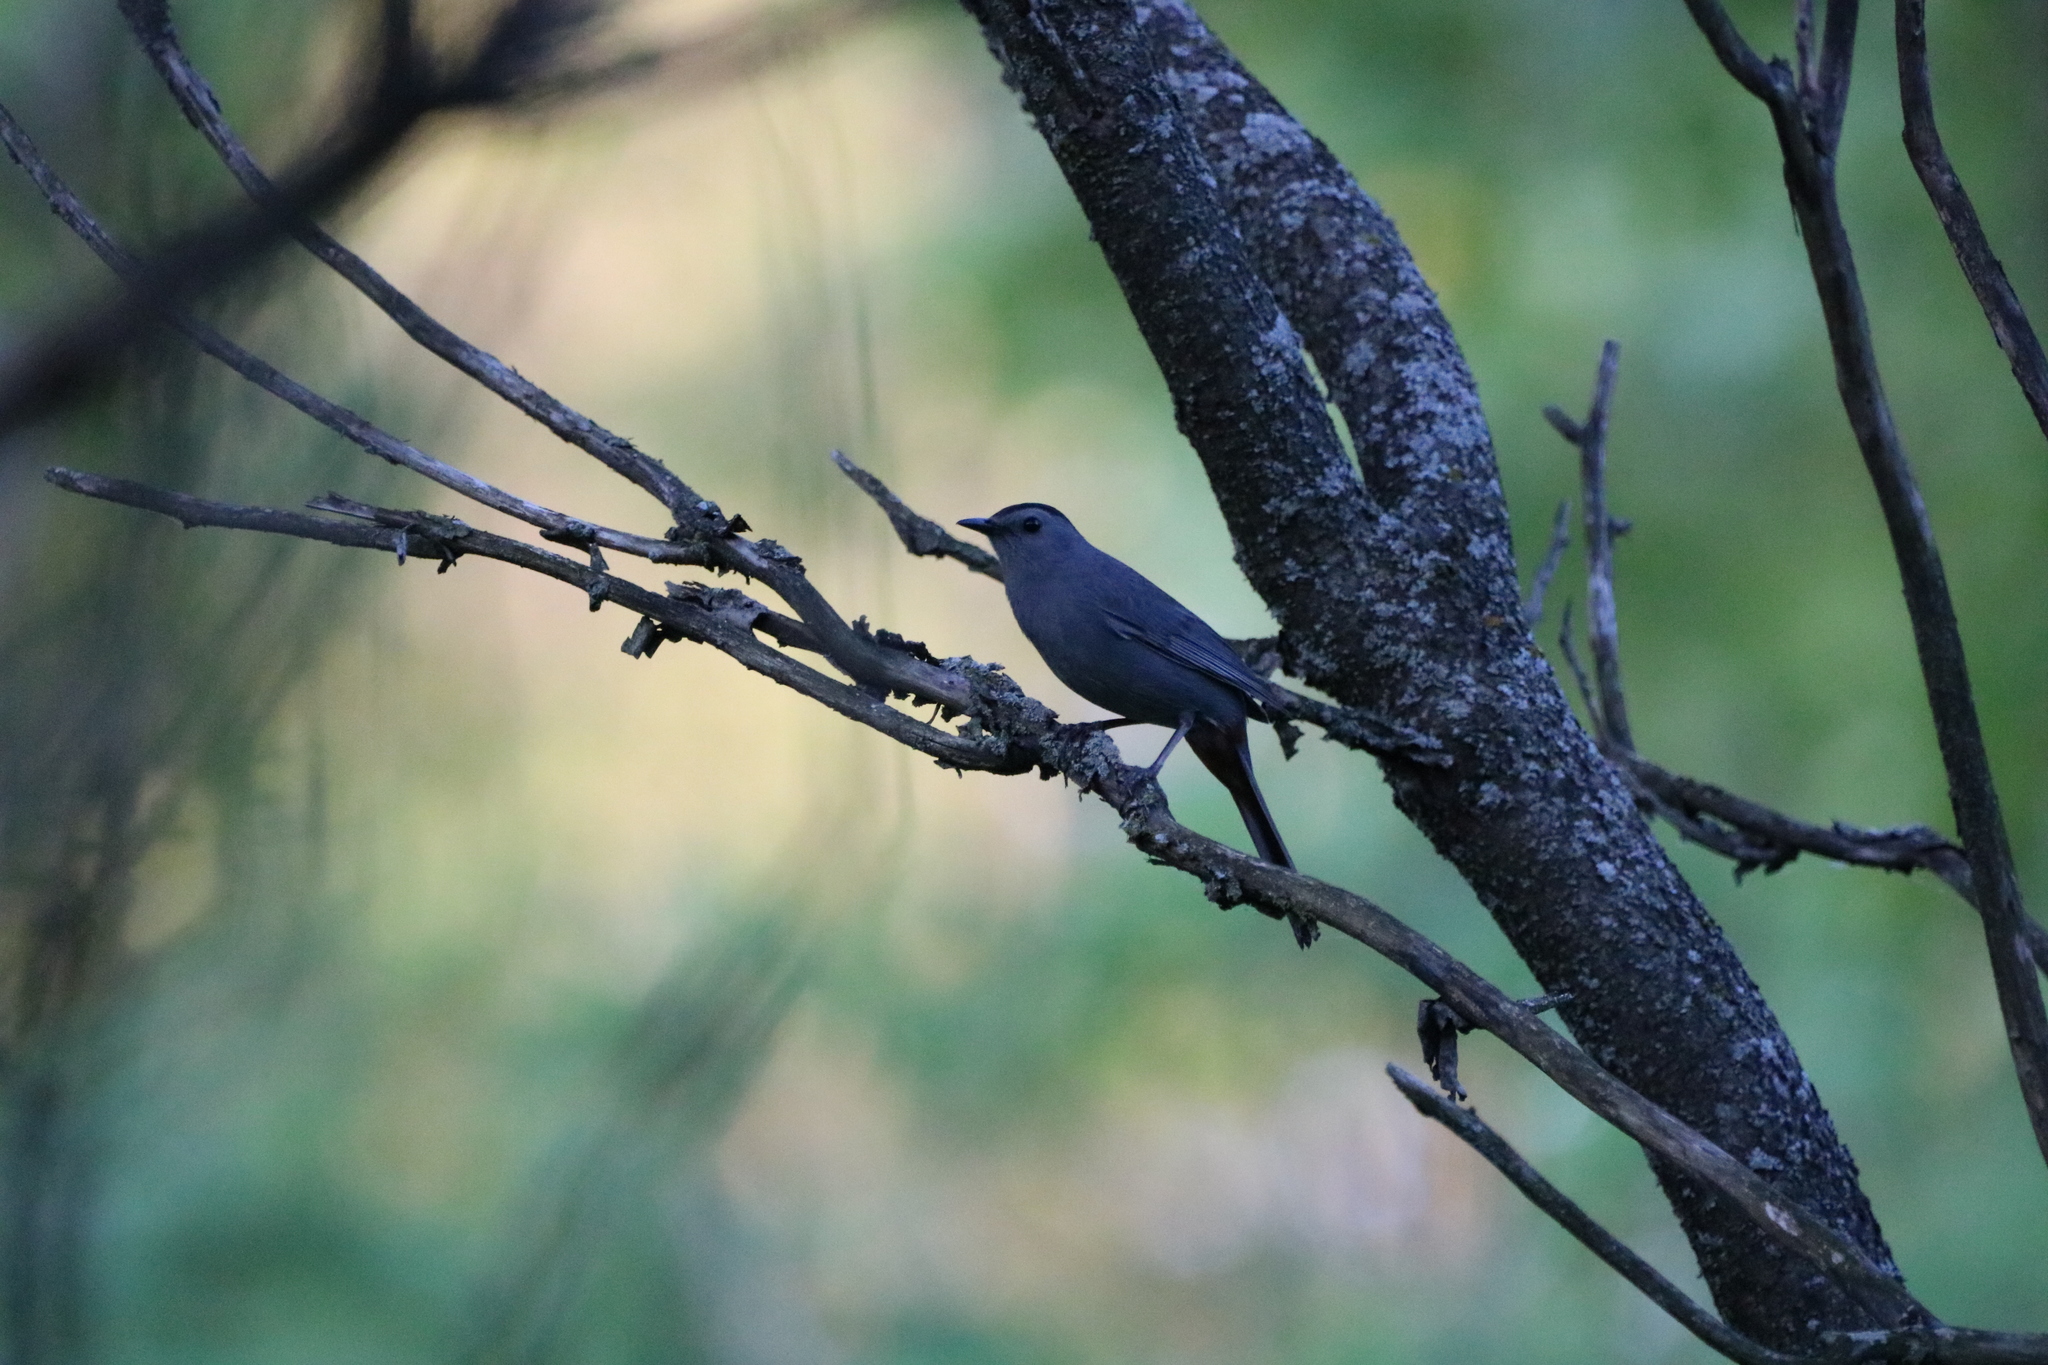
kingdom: Animalia
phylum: Chordata
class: Aves
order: Passeriformes
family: Mimidae
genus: Dumetella
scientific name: Dumetella carolinensis
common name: Gray catbird
